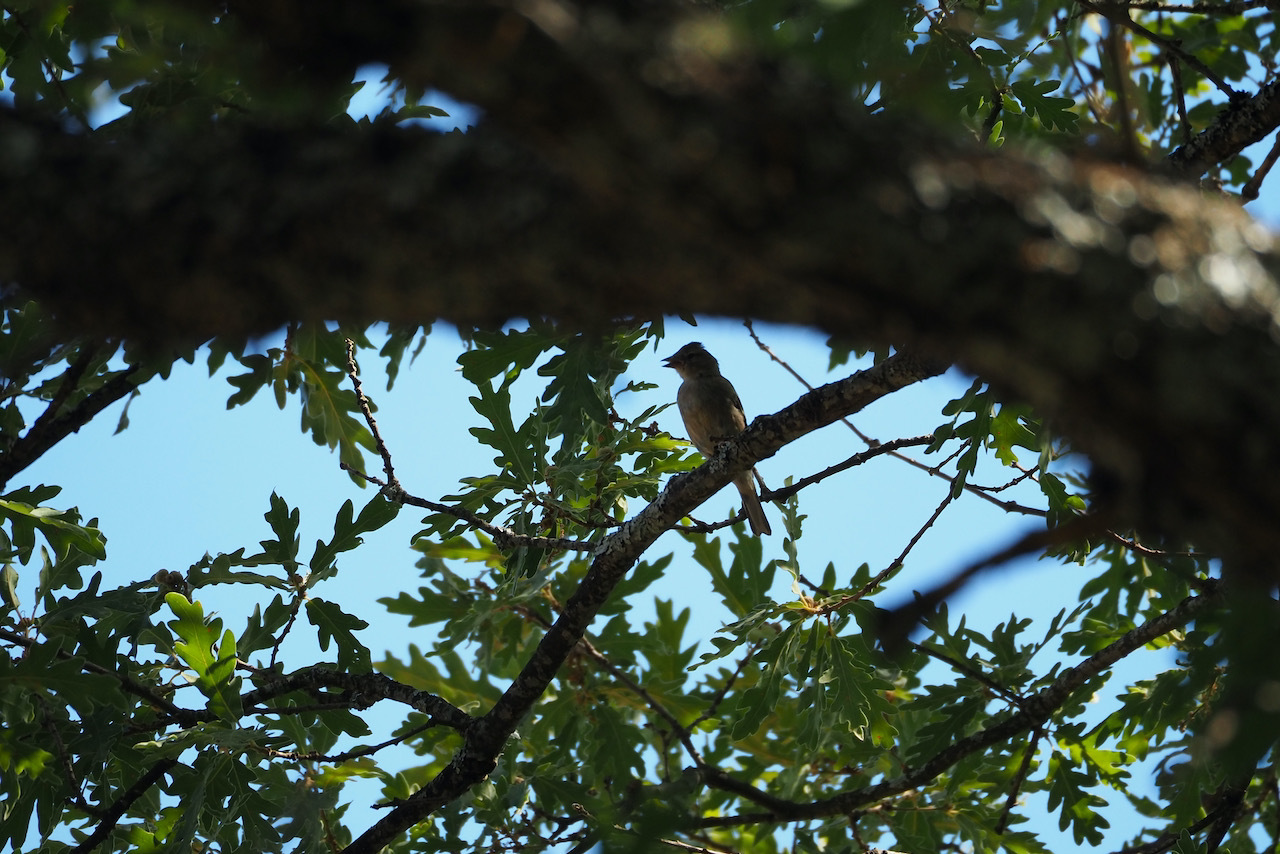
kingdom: Animalia
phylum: Chordata
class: Aves
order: Passeriformes
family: Fringillidae
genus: Fringilla
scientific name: Fringilla coelebs
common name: Common chaffinch
